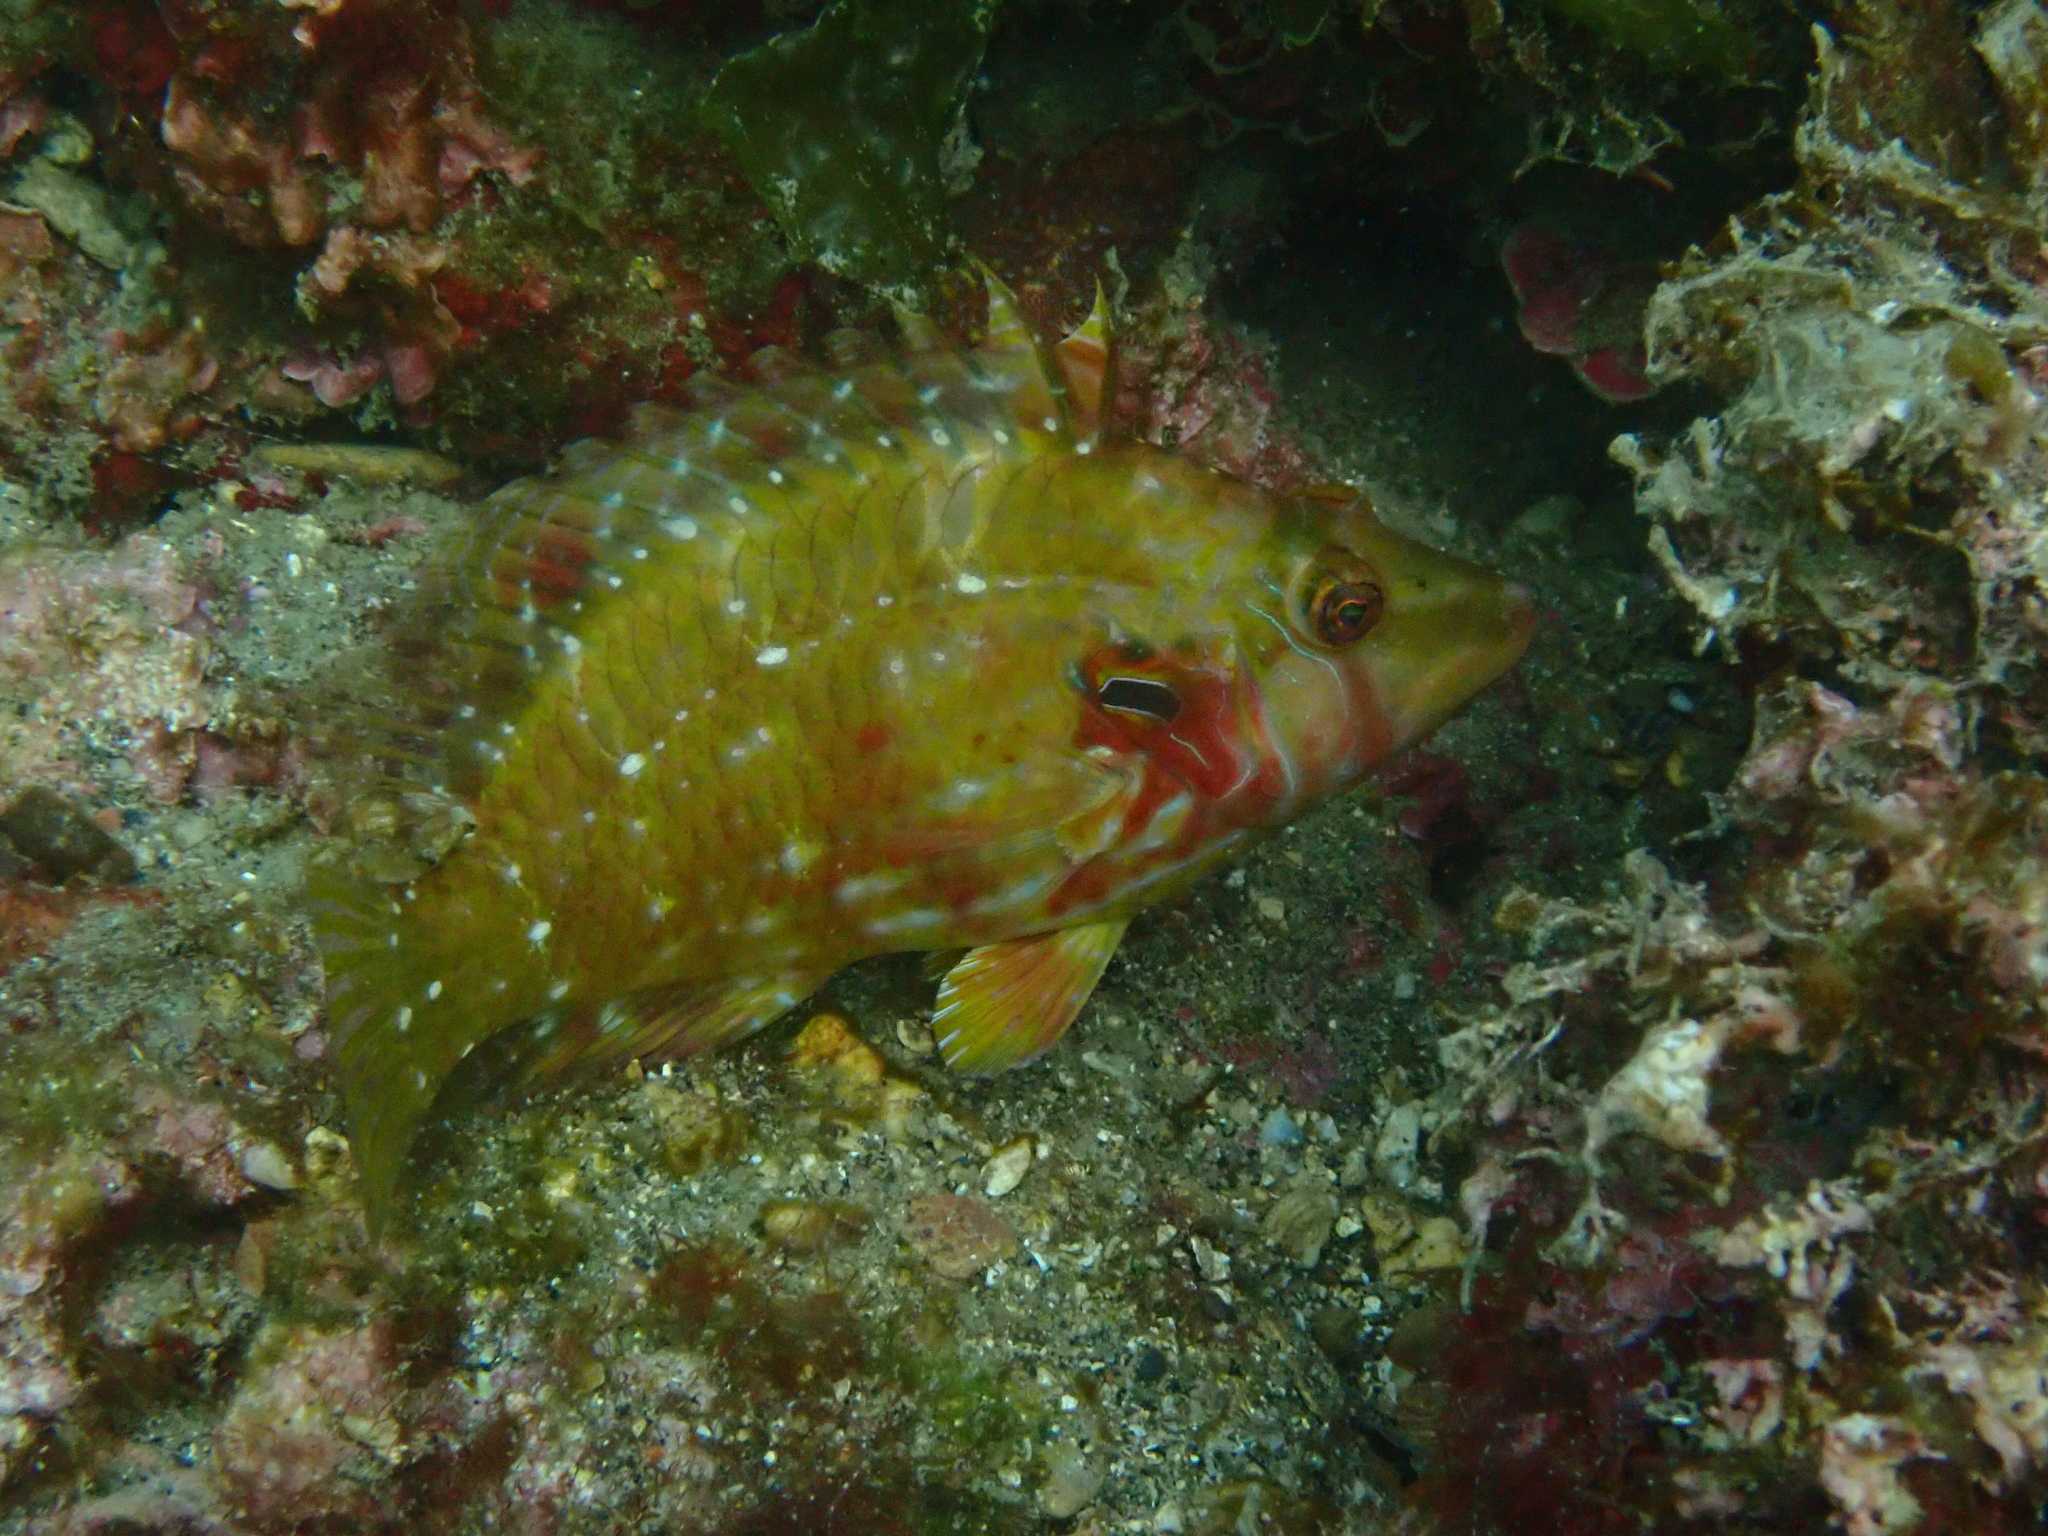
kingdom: Animalia
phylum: Chordata
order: Perciformes
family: Labridae
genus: Pteragogus
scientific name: Pteragogus enneacanthus
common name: Cockerel wrasse
